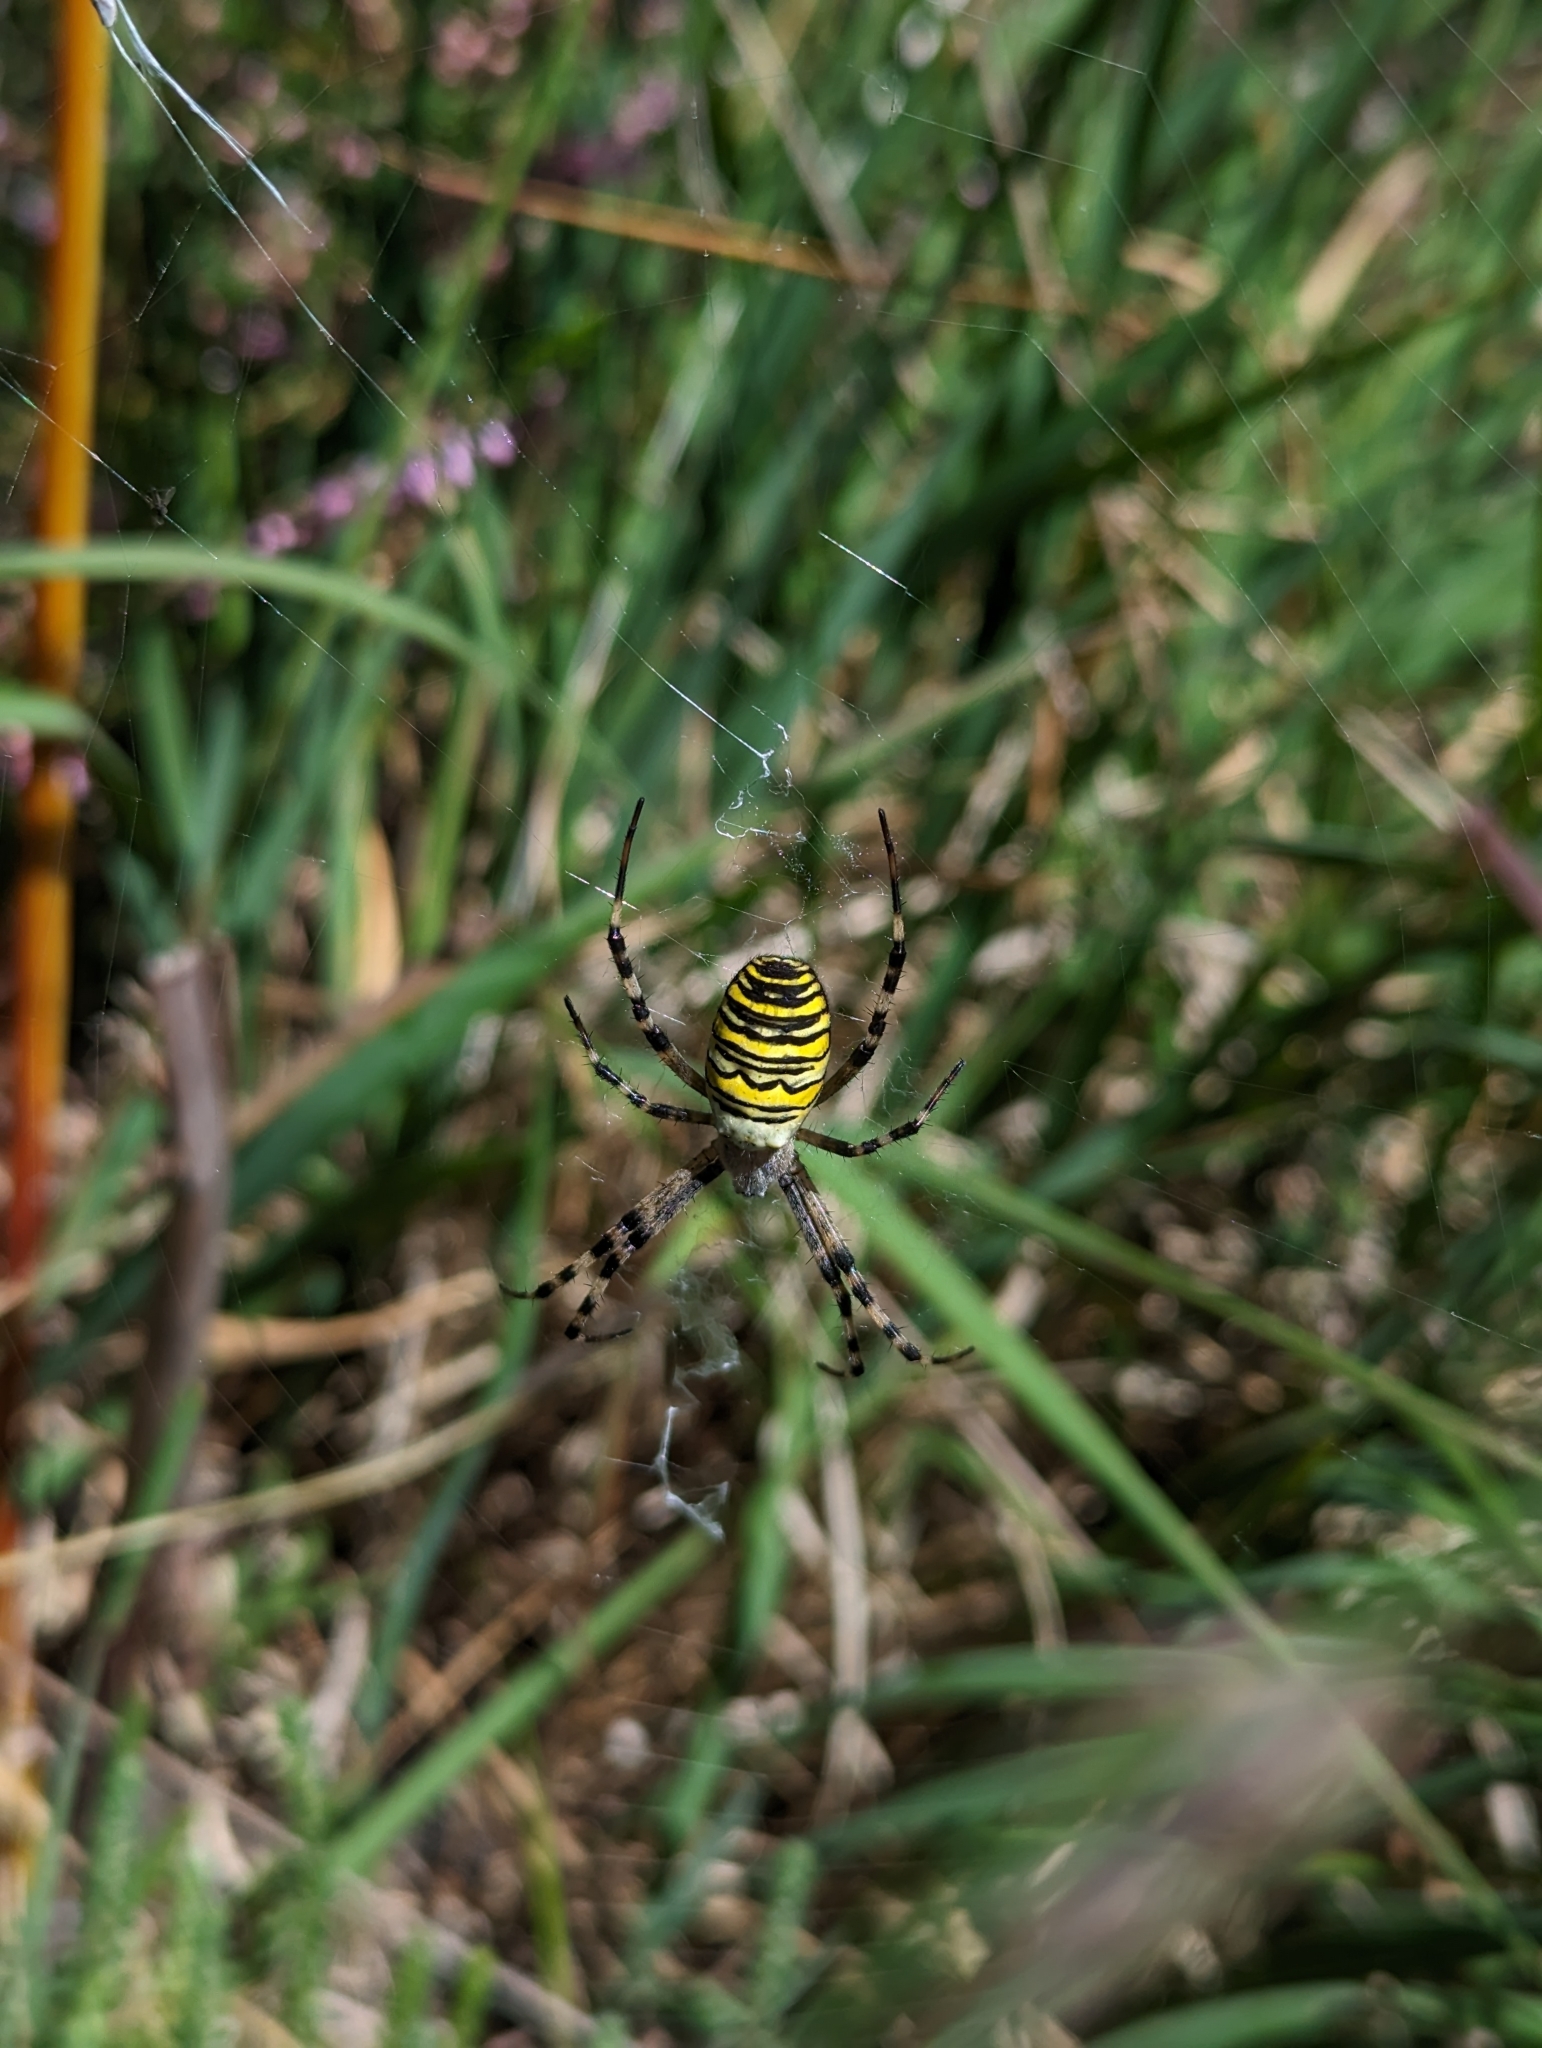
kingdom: Animalia
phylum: Arthropoda
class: Arachnida
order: Araneae
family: Araneidae
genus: Argiope
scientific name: Argiope bruennichi
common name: Wasp spider
